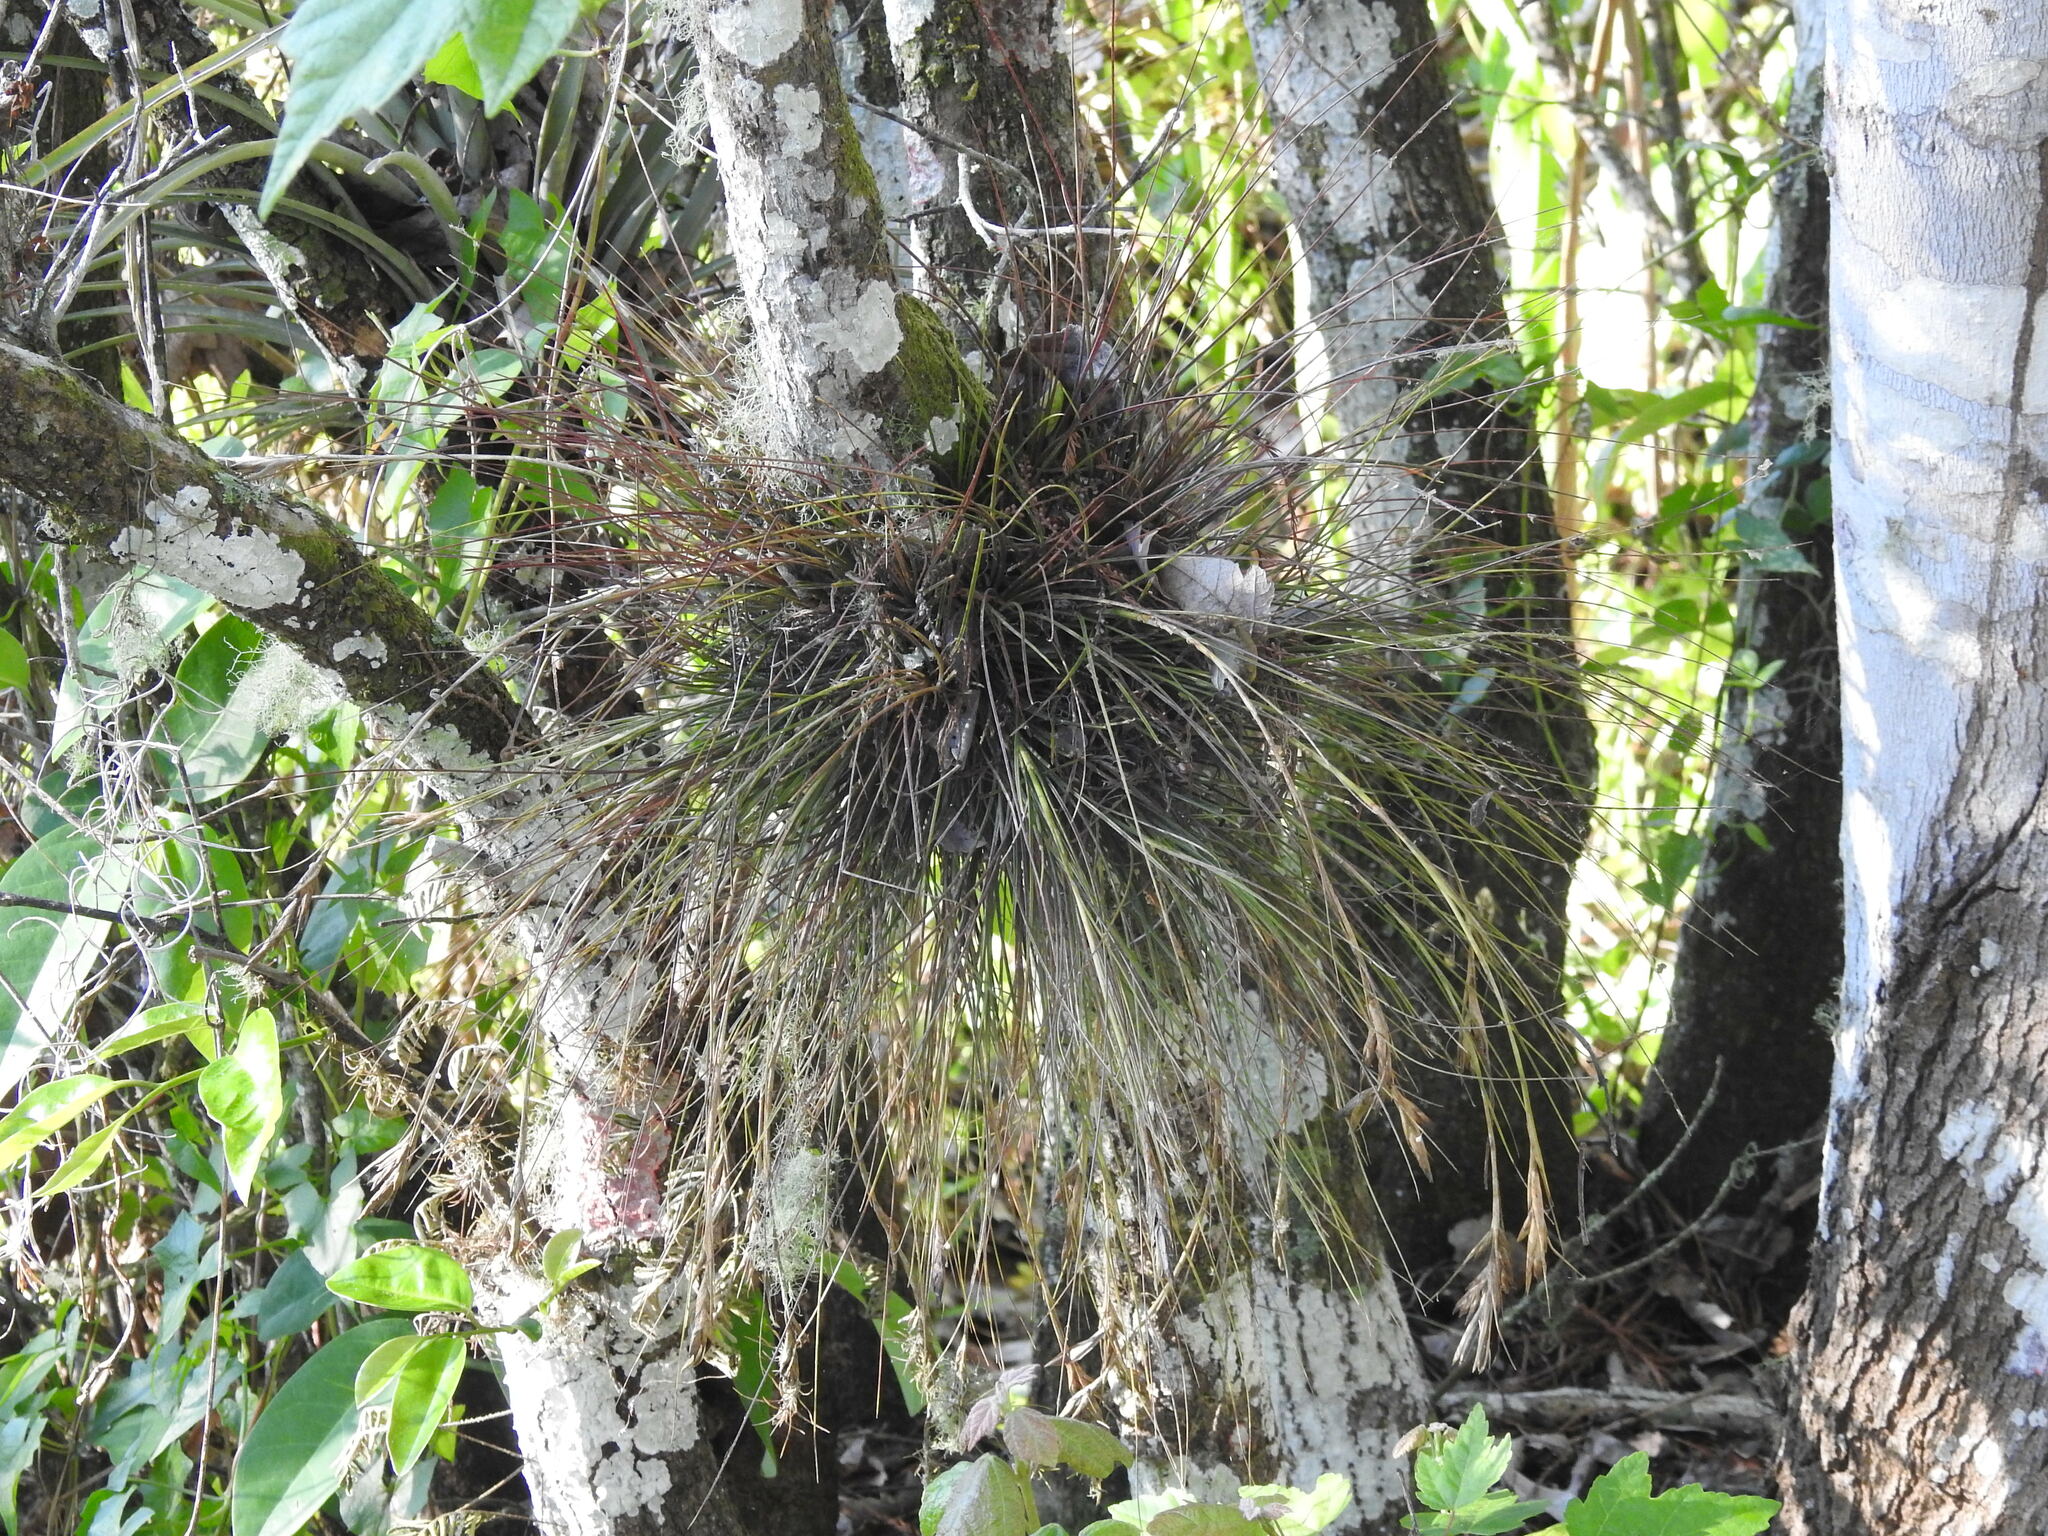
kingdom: Plantae
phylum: Tracheophyta
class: Liliopsida
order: Poales
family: Bromeliaceae
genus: Tillandsia
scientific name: Tillandsia setacea
